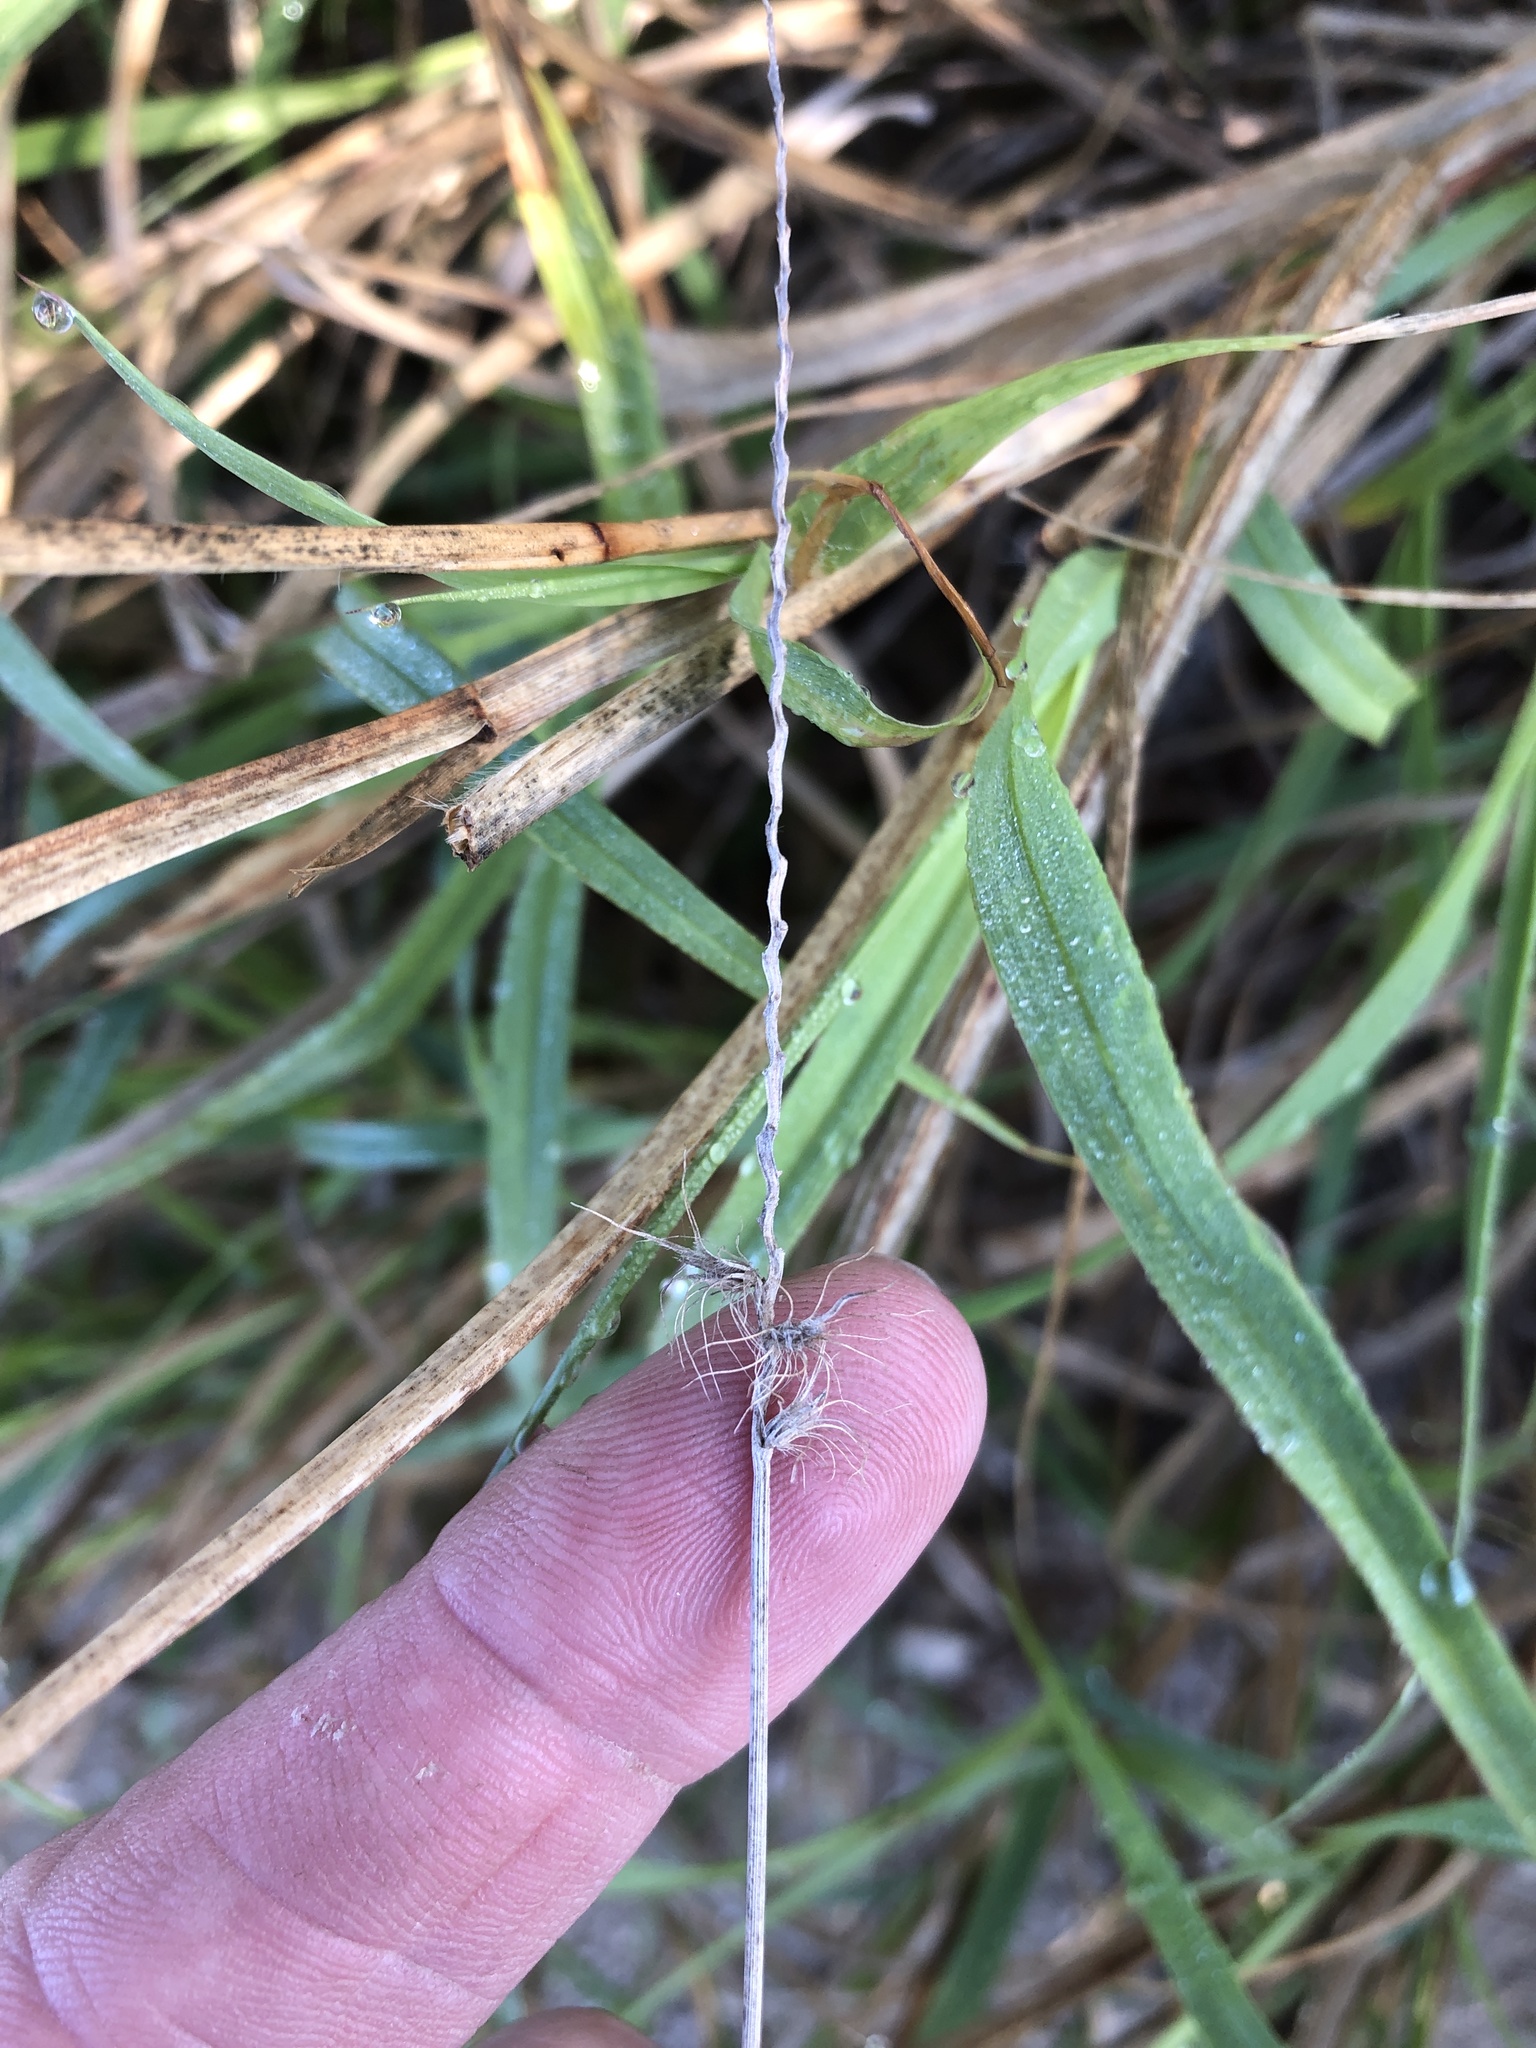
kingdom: Plantae
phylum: Tracheophyta
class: Liliopsida
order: Poales
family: Poaceae
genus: Cenchrus
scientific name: Cenchrus ciliaris
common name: Buffelgrass
